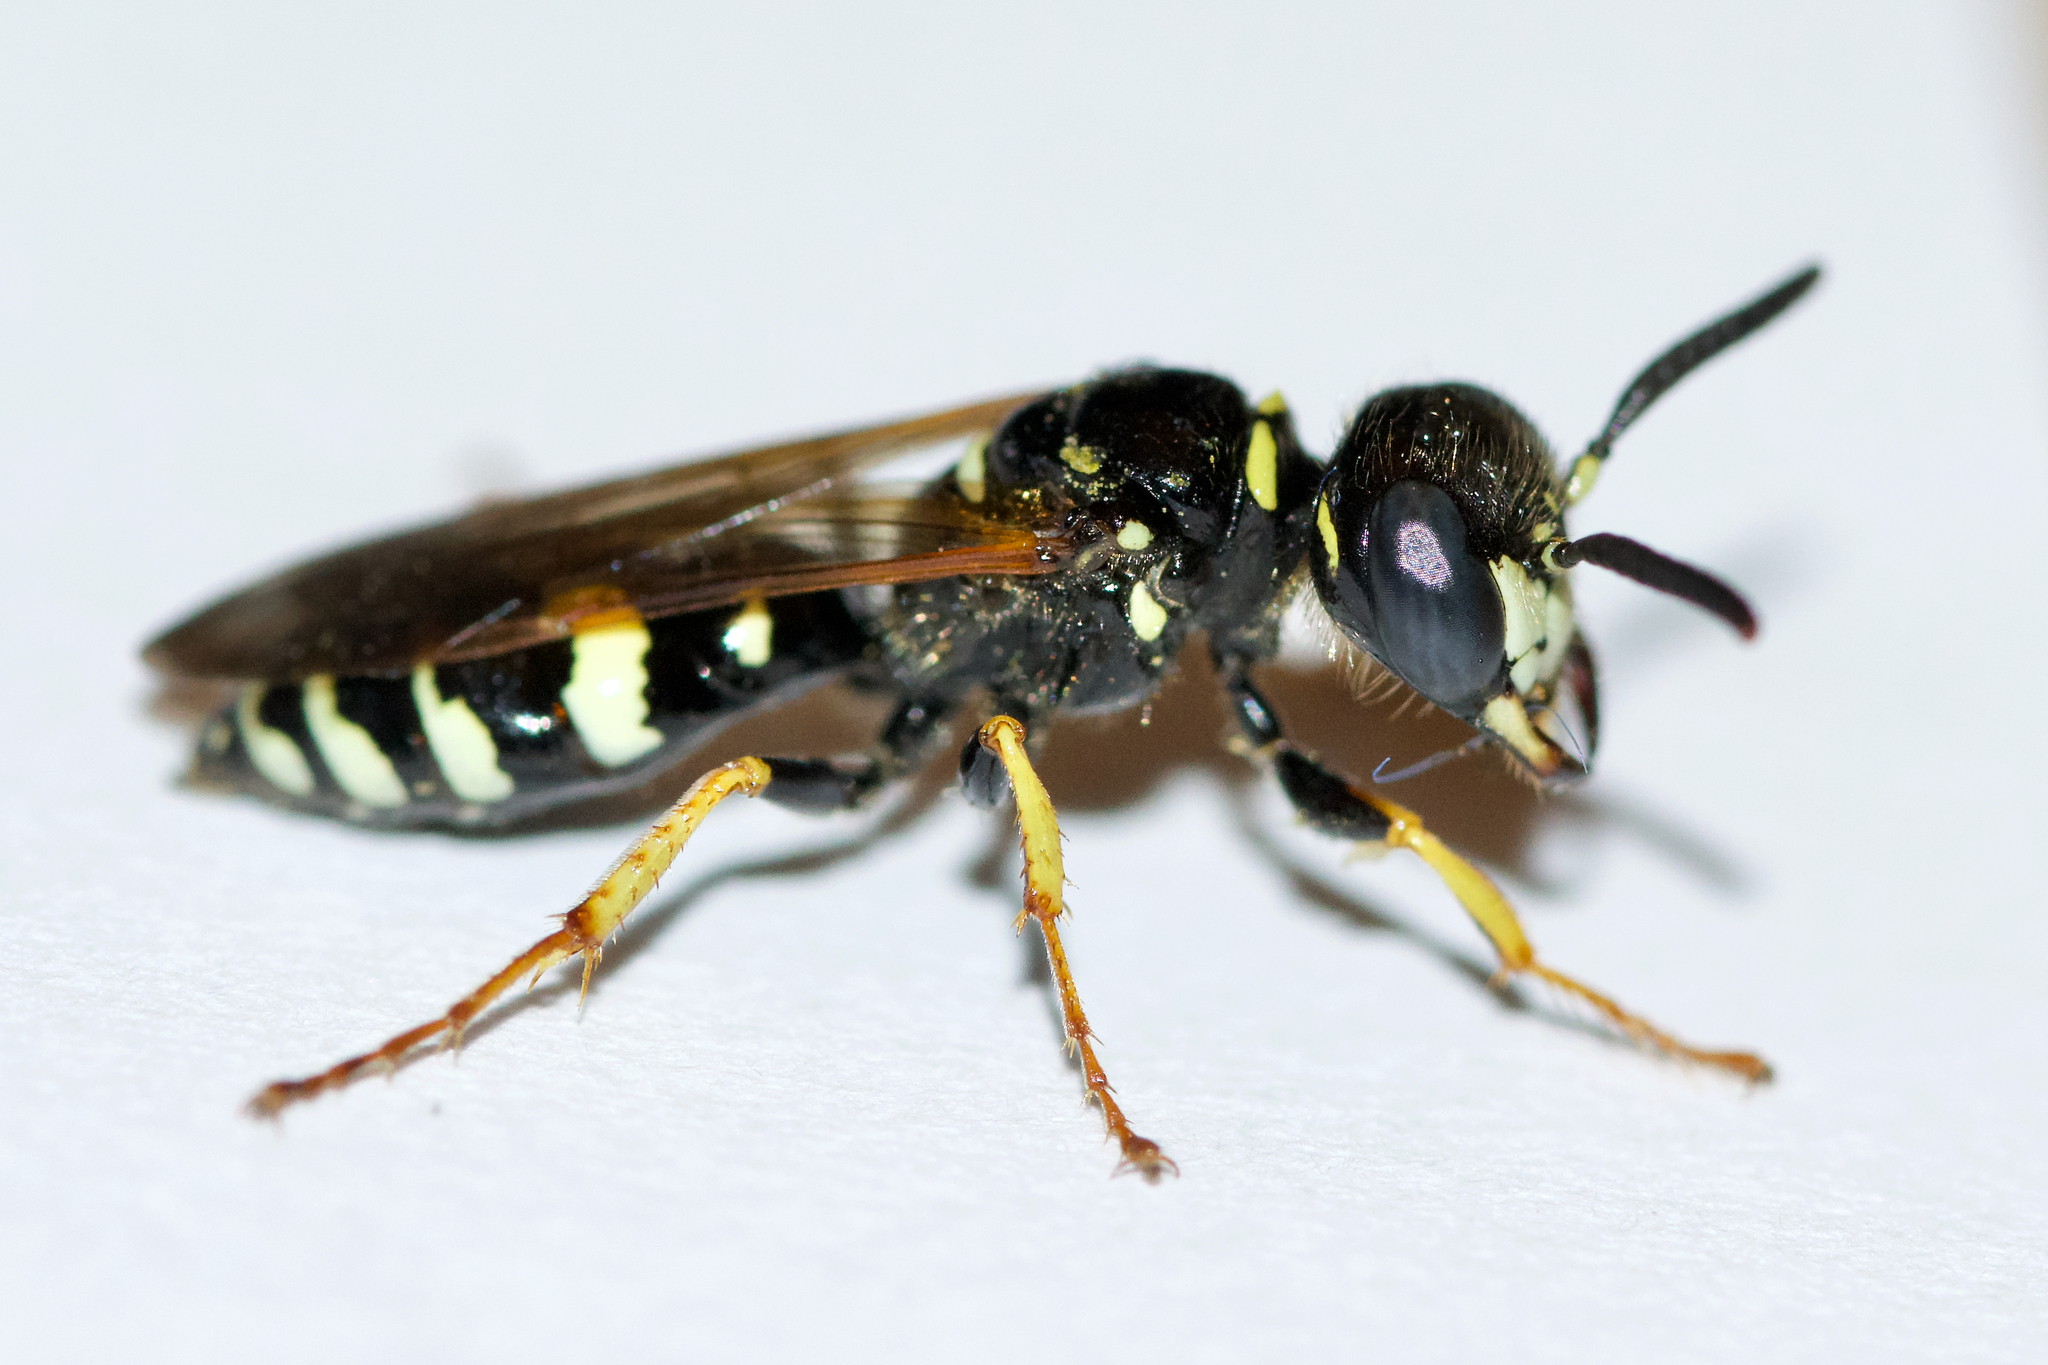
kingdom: Animalia
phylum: Arthropoda
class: Insecta
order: Hymenoptera
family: Crabronidae
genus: Philanthus
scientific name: Philanthus bilunatus
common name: Two moons beewolf
